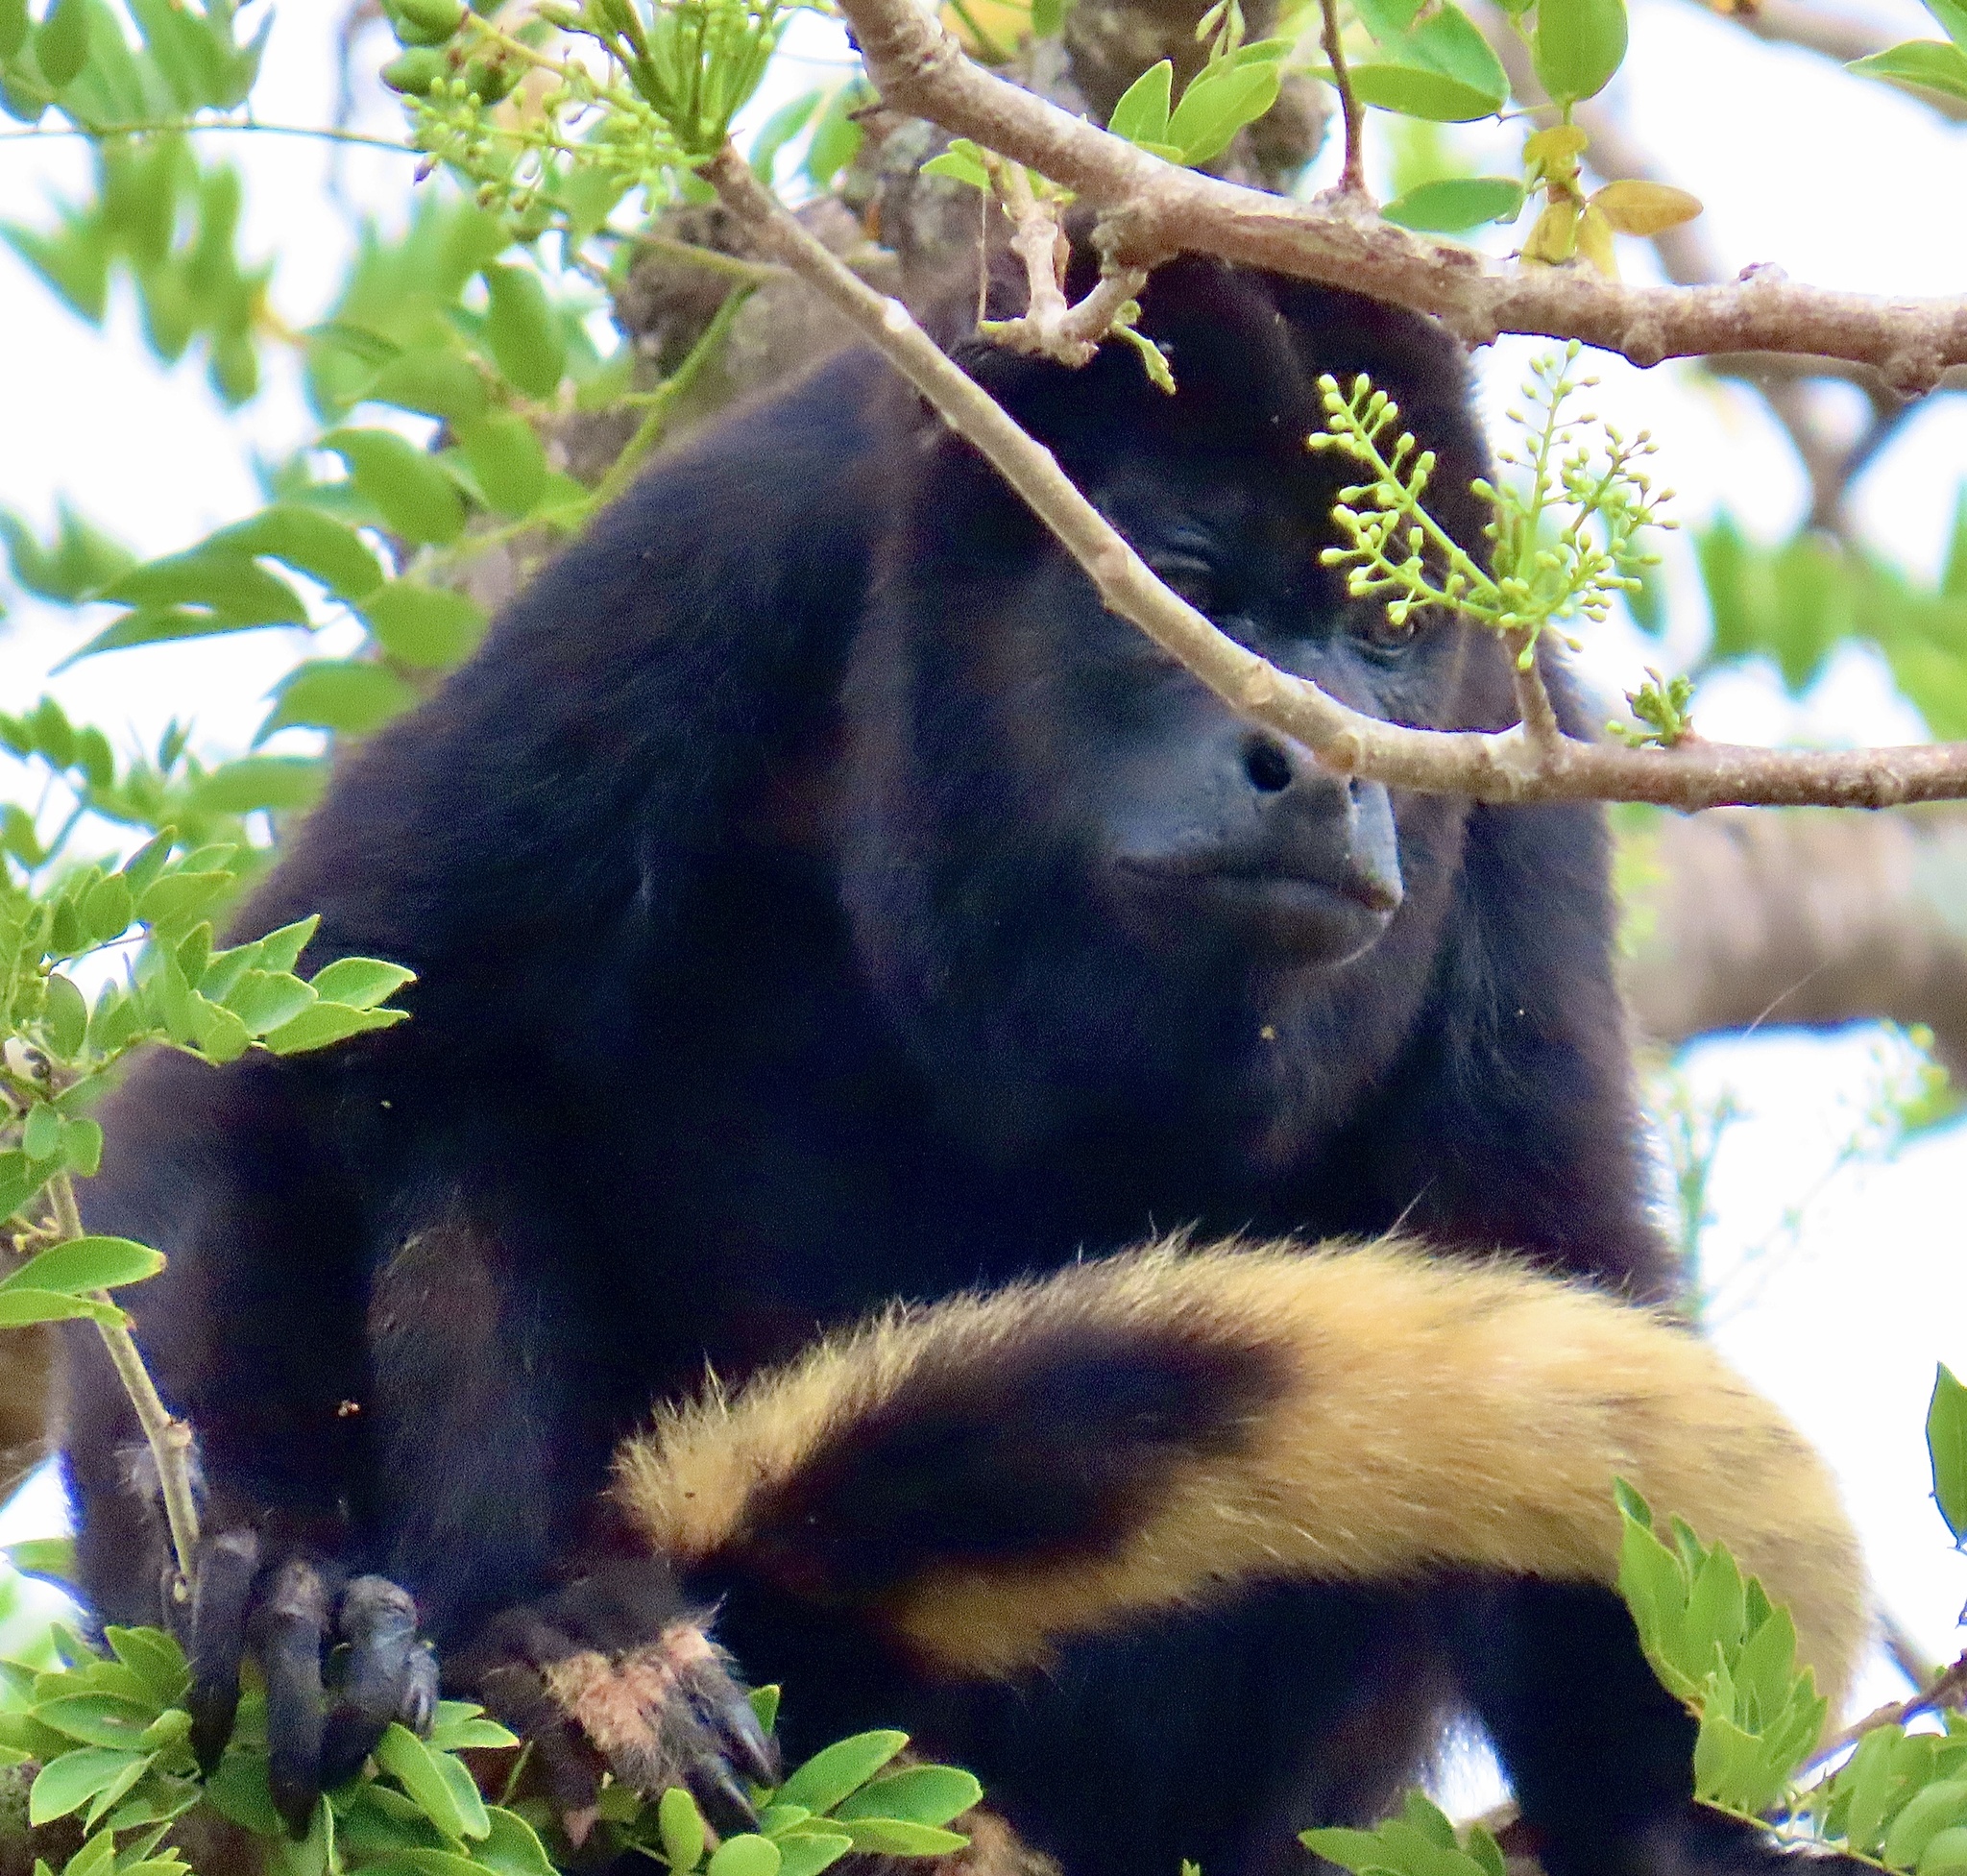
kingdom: Animalia
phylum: Chordata
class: Mammalia
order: Primates
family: Atelidae
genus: Alouatta
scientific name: Alouatta palliata
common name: Mantled howler
